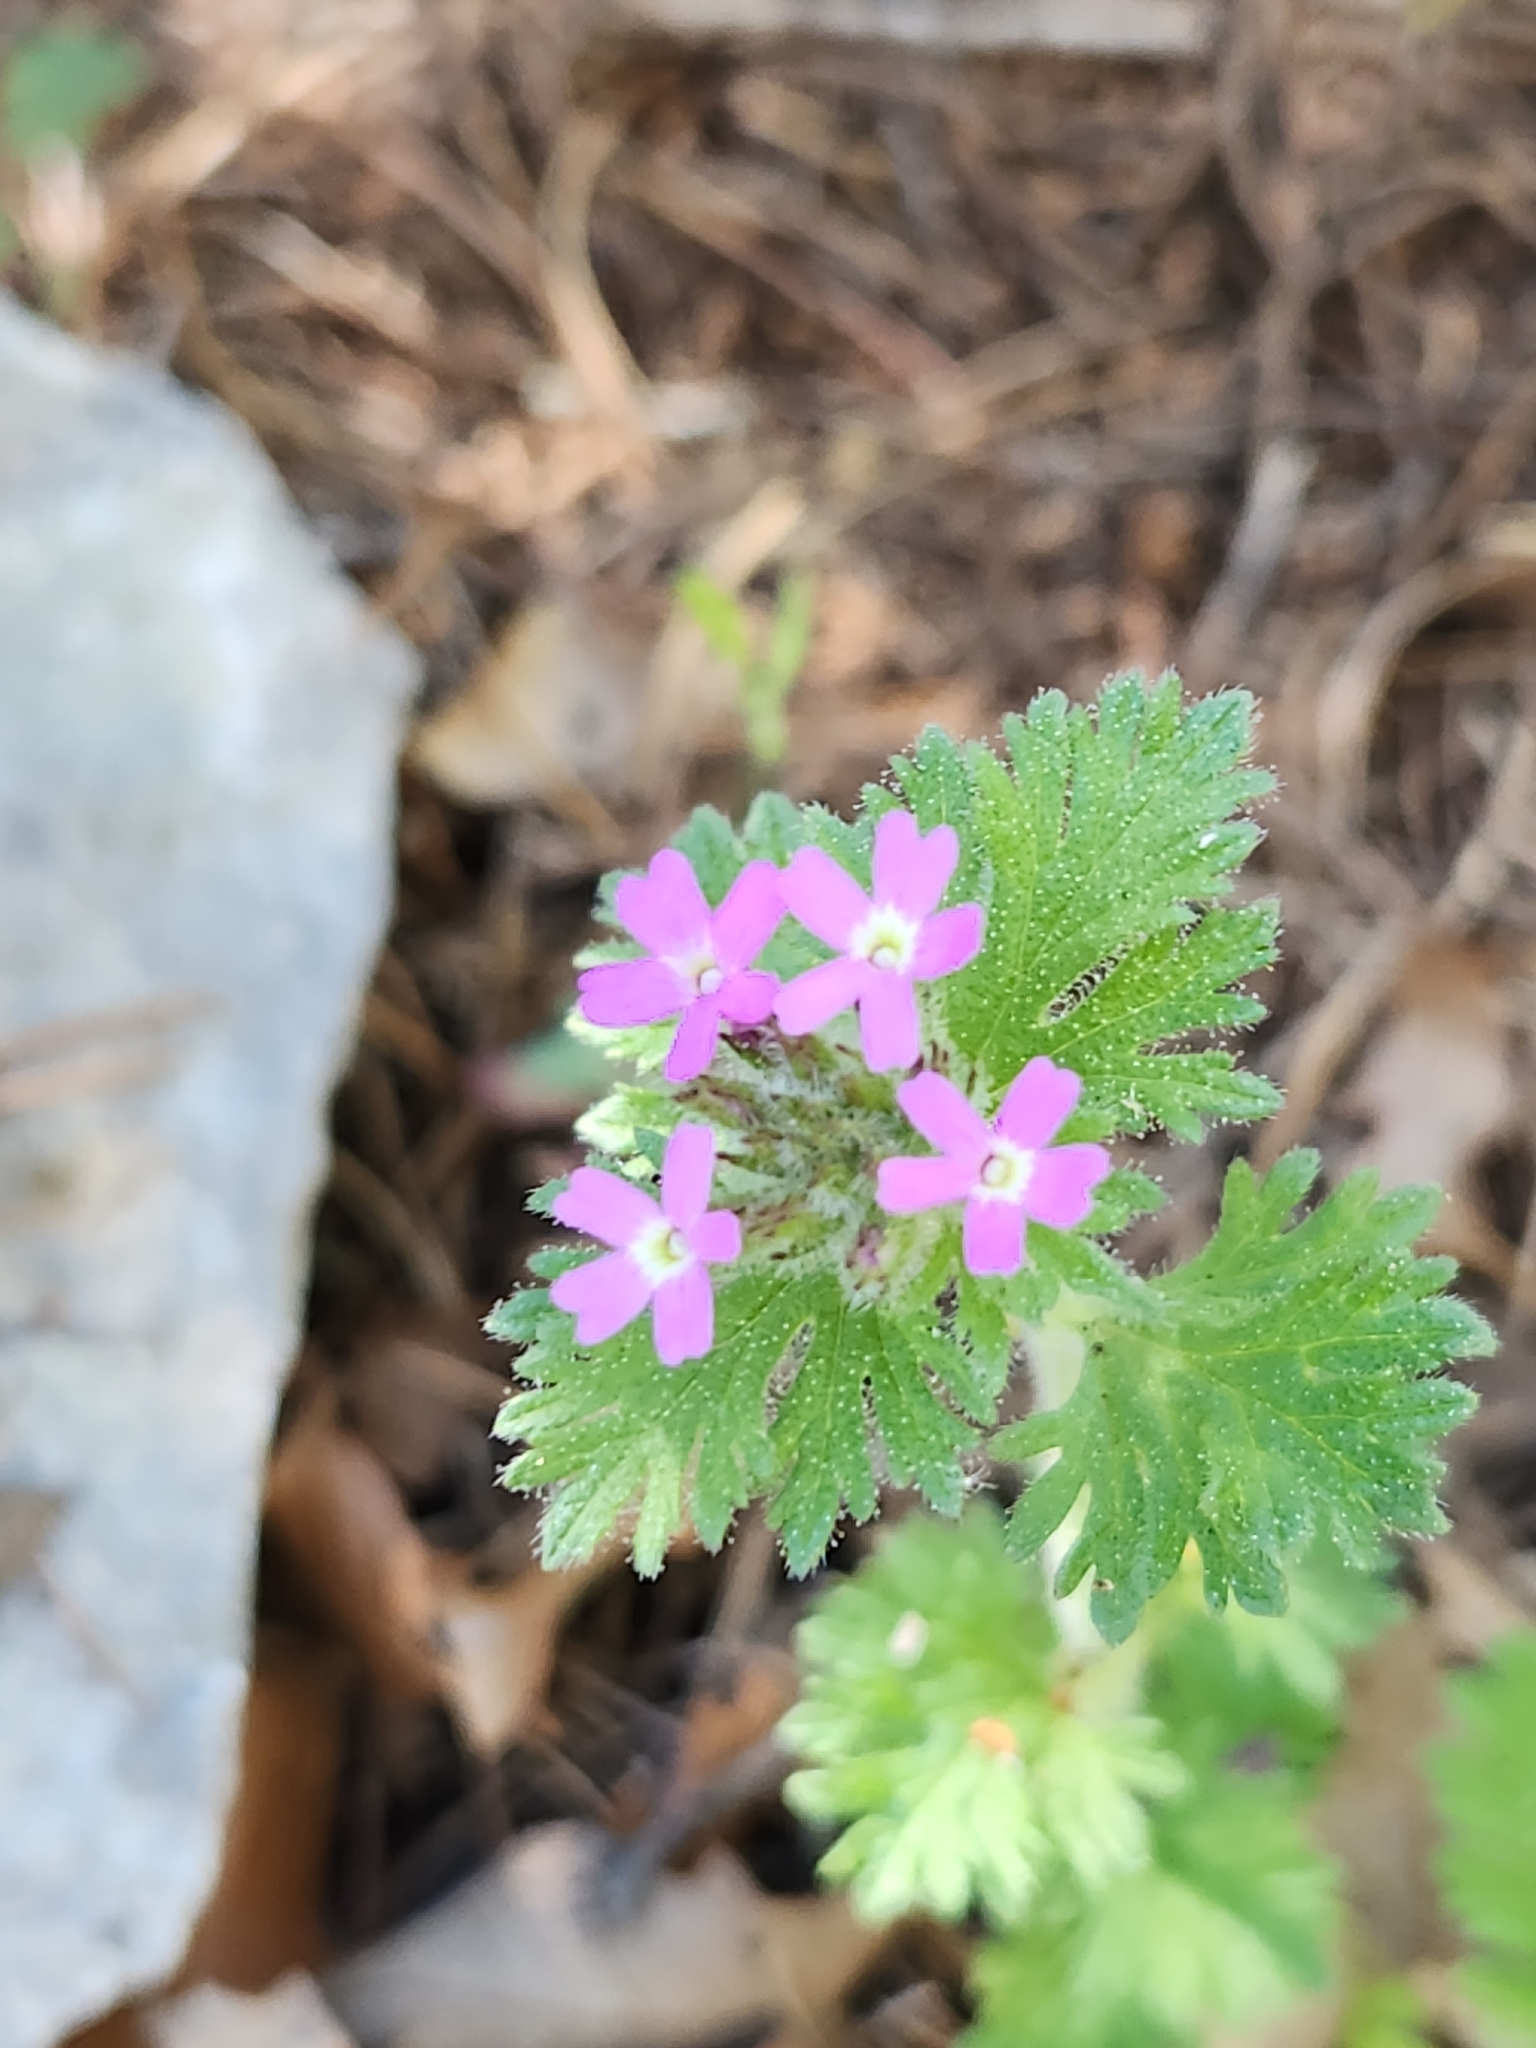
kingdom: Plantae
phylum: Tracheophyta
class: Magnoliopsida
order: Lamiales
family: Verbenaceae
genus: Verbena
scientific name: Verbena pumila
